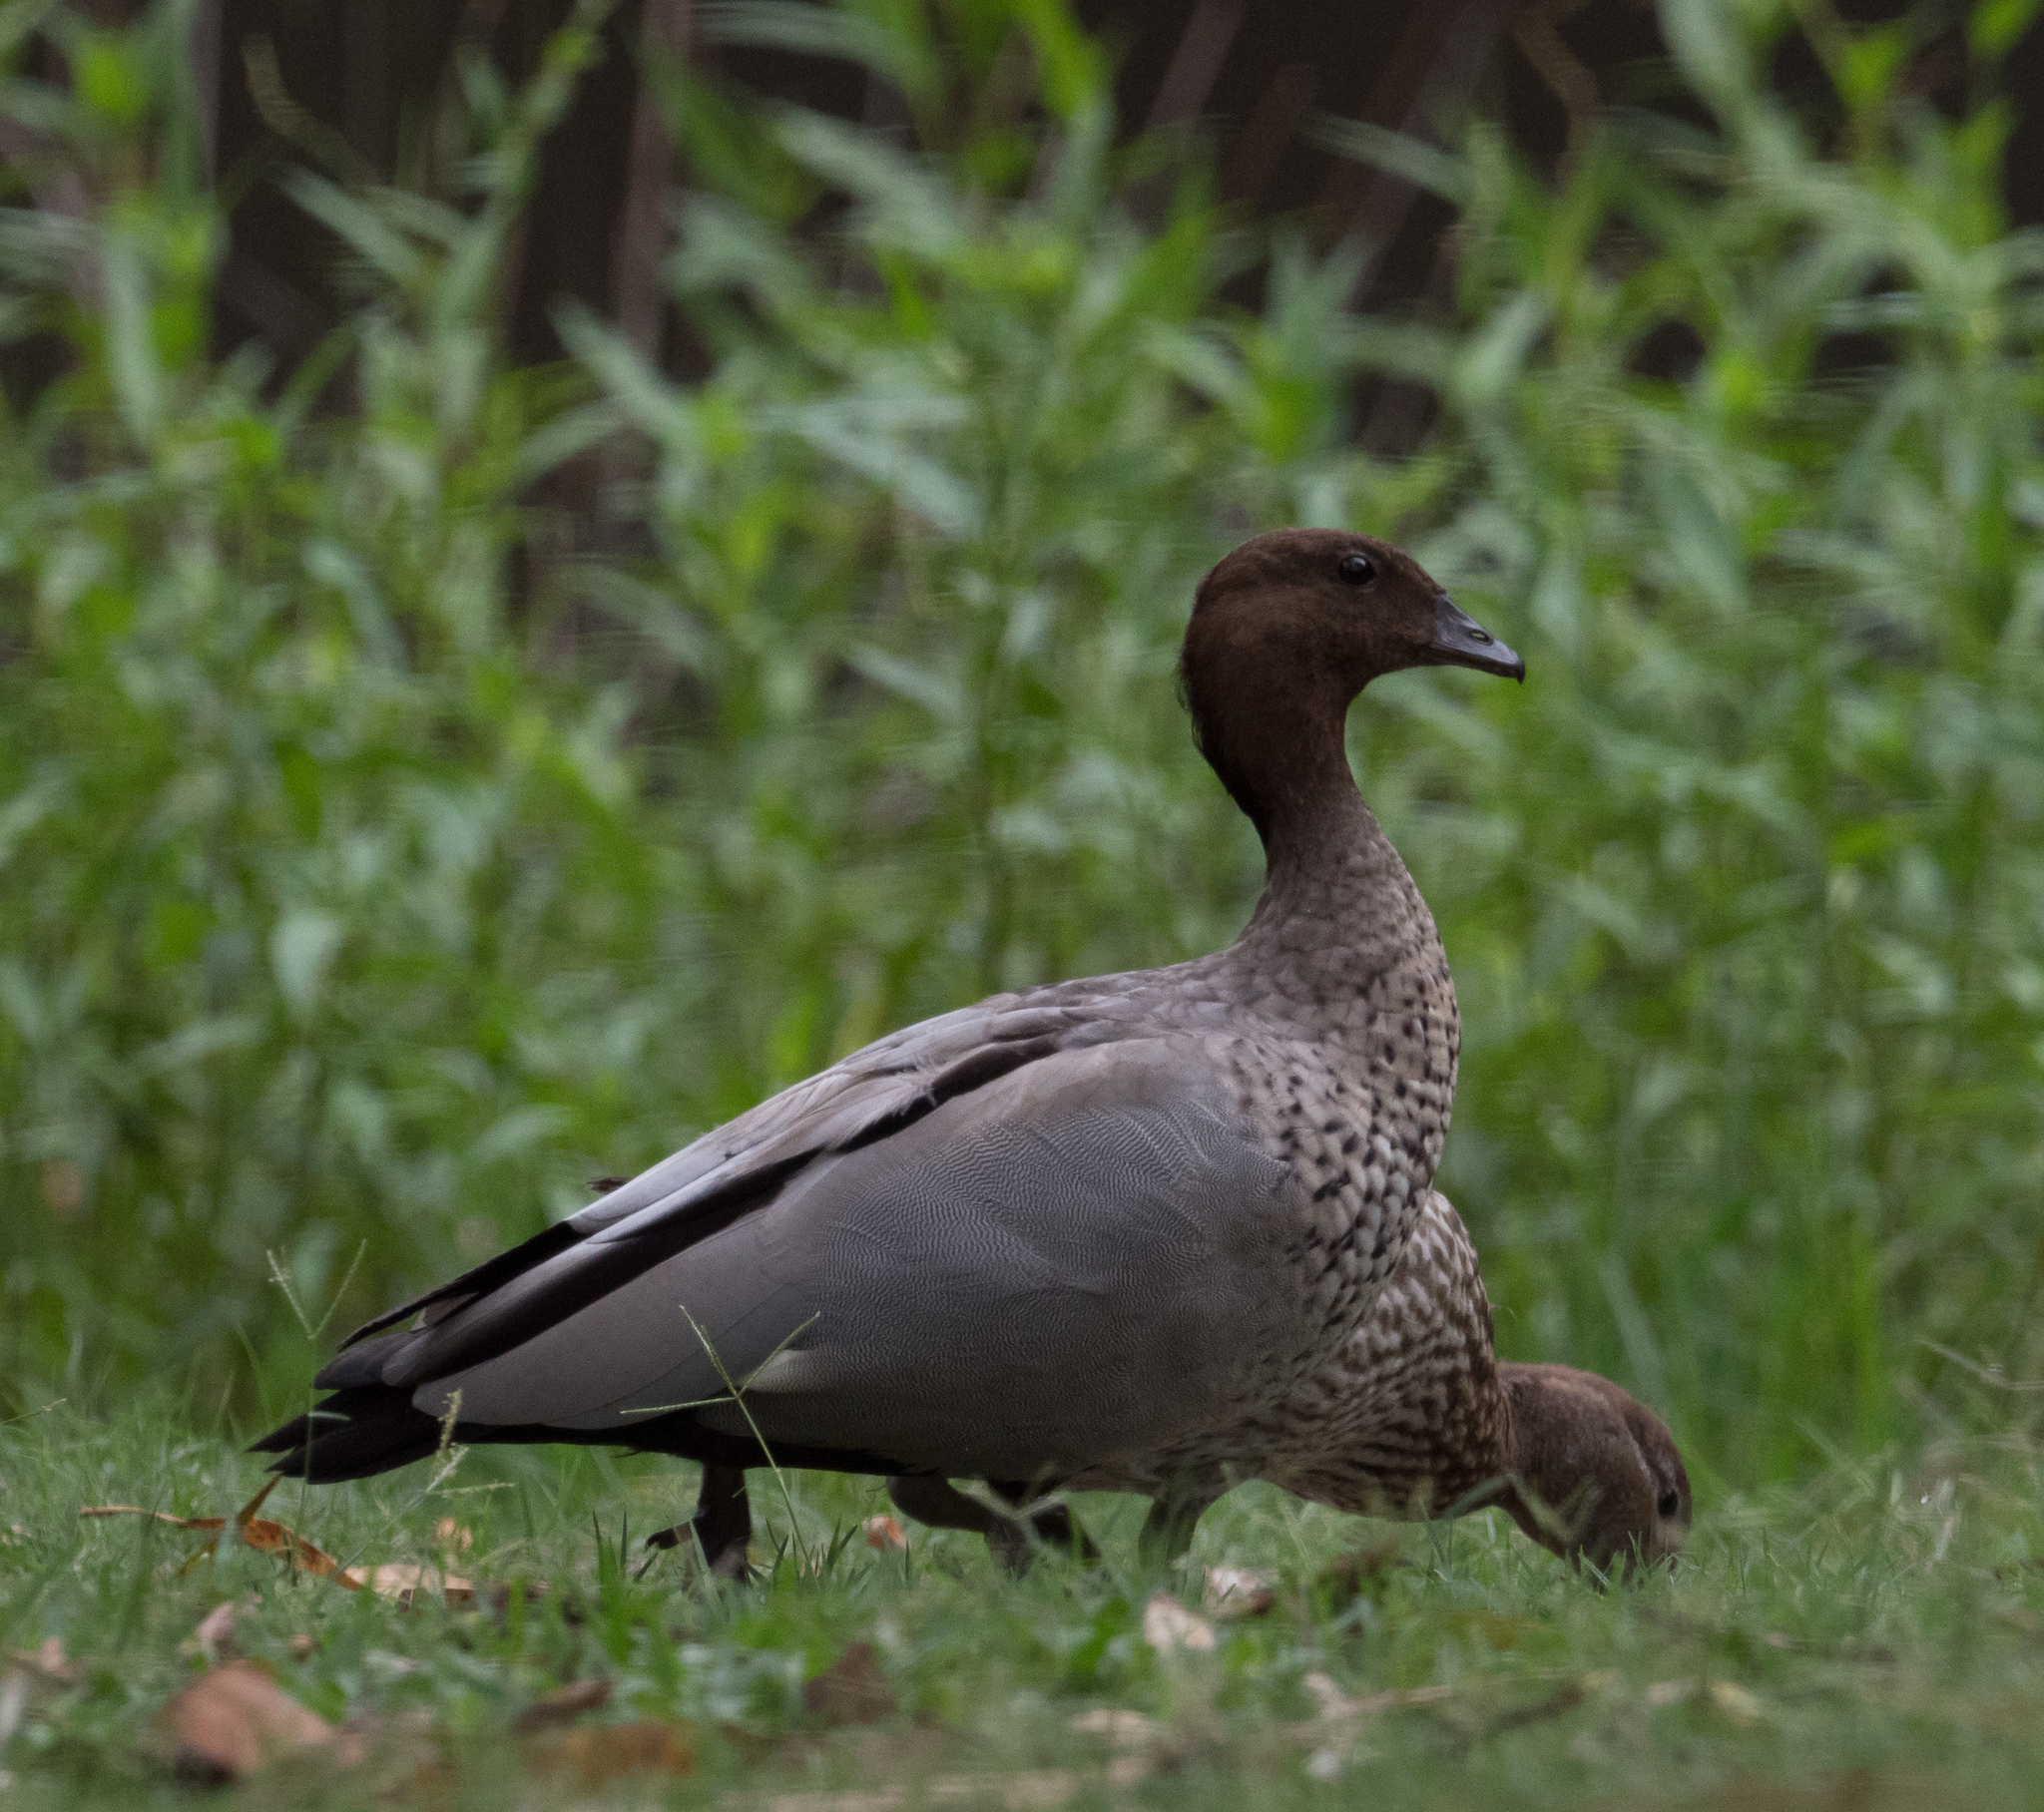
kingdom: Animalia
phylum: Chordata
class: Aves
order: Anseriformes
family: Anatidae
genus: Chenonetta
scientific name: Chenonetta jubata
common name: Maned duck
